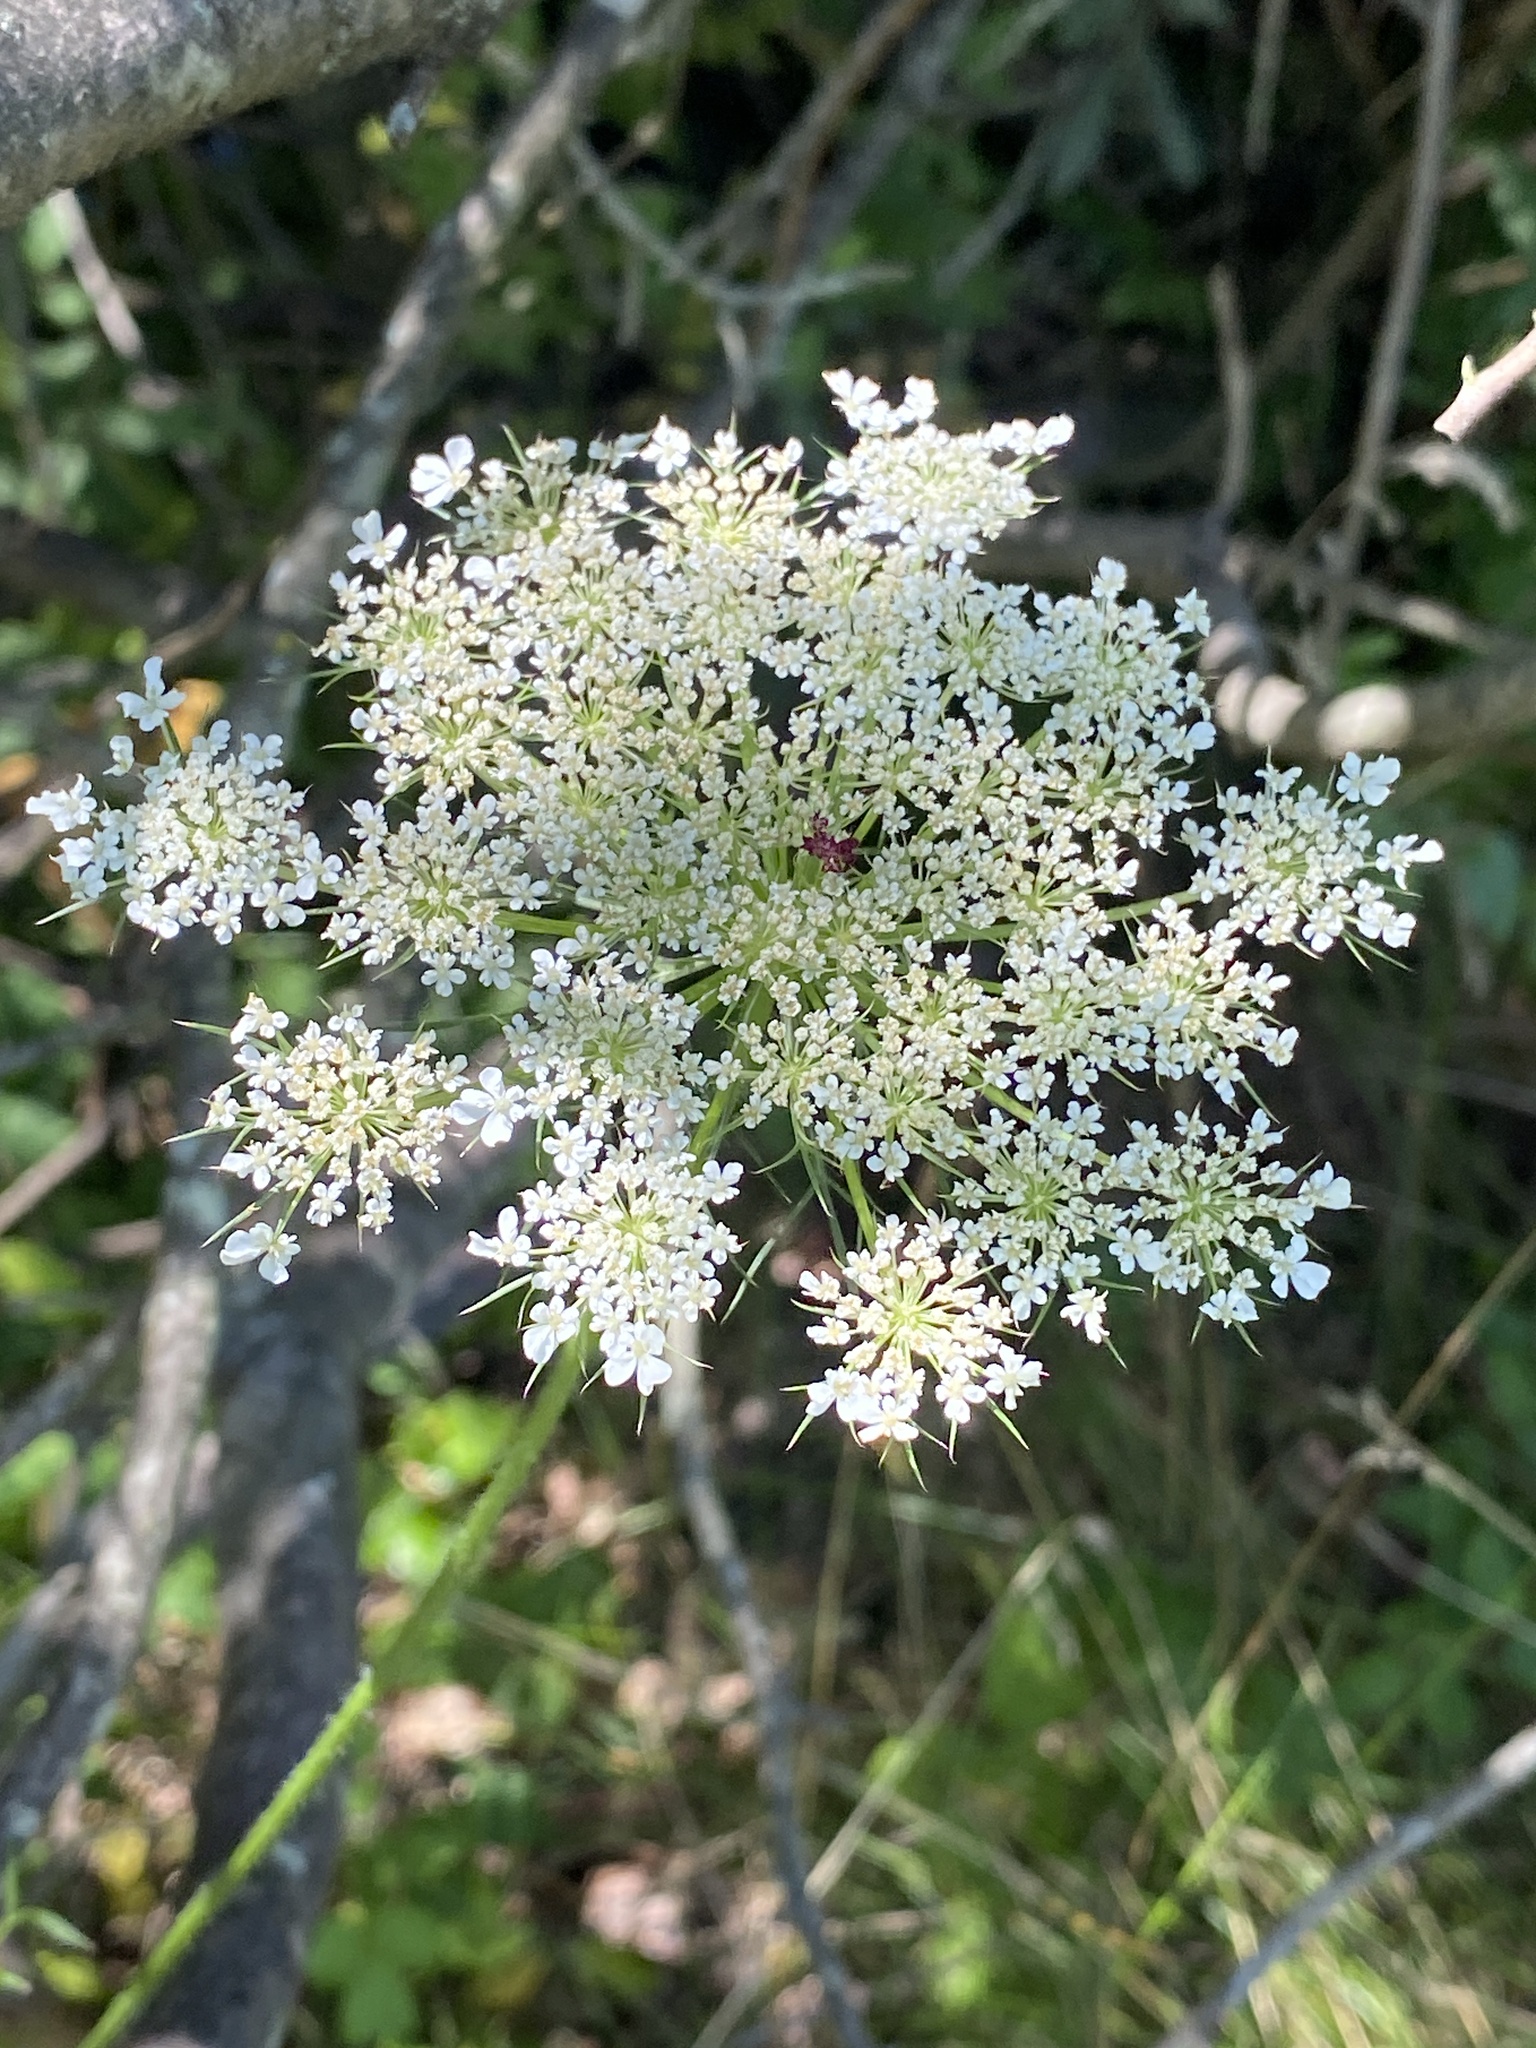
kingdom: Plantae
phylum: Tracheophyta
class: Magnoliopsida
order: Apiales
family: Apiaceae
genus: Daucus
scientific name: Daucus carota
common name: Wild carrot
